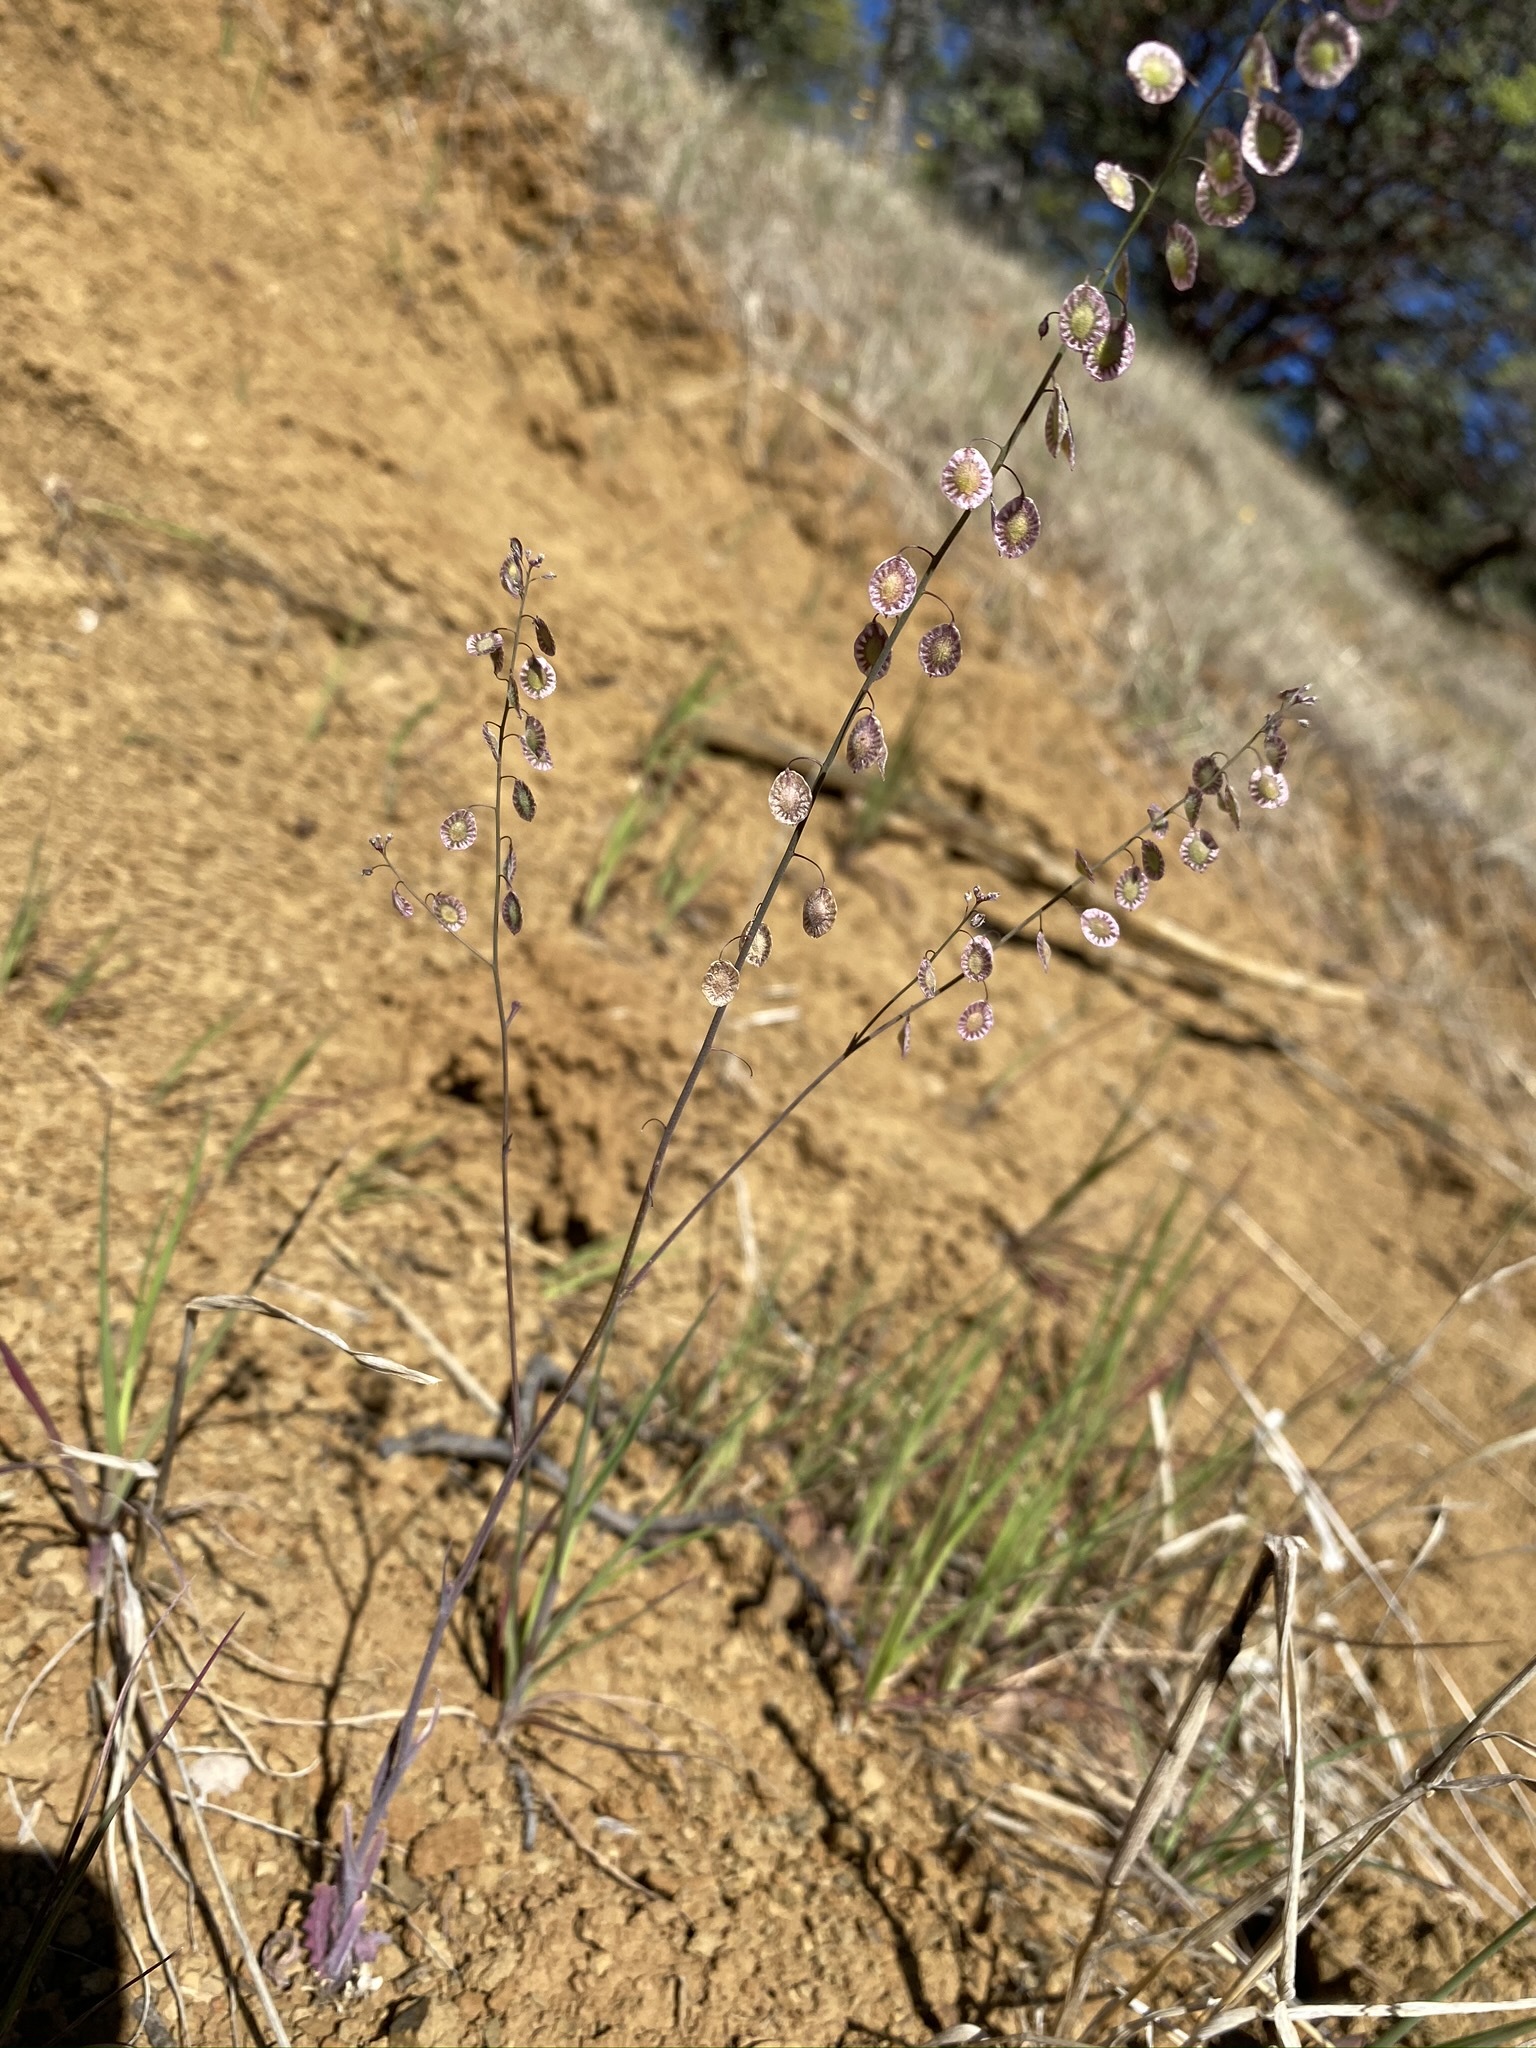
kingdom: Plantae
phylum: Tracheophyta
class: Magnoliopsida
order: Brassicales
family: Brassicaceae
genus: Thysanocarpus
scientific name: Thysanocarpus curvipes
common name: Sand fringepod
